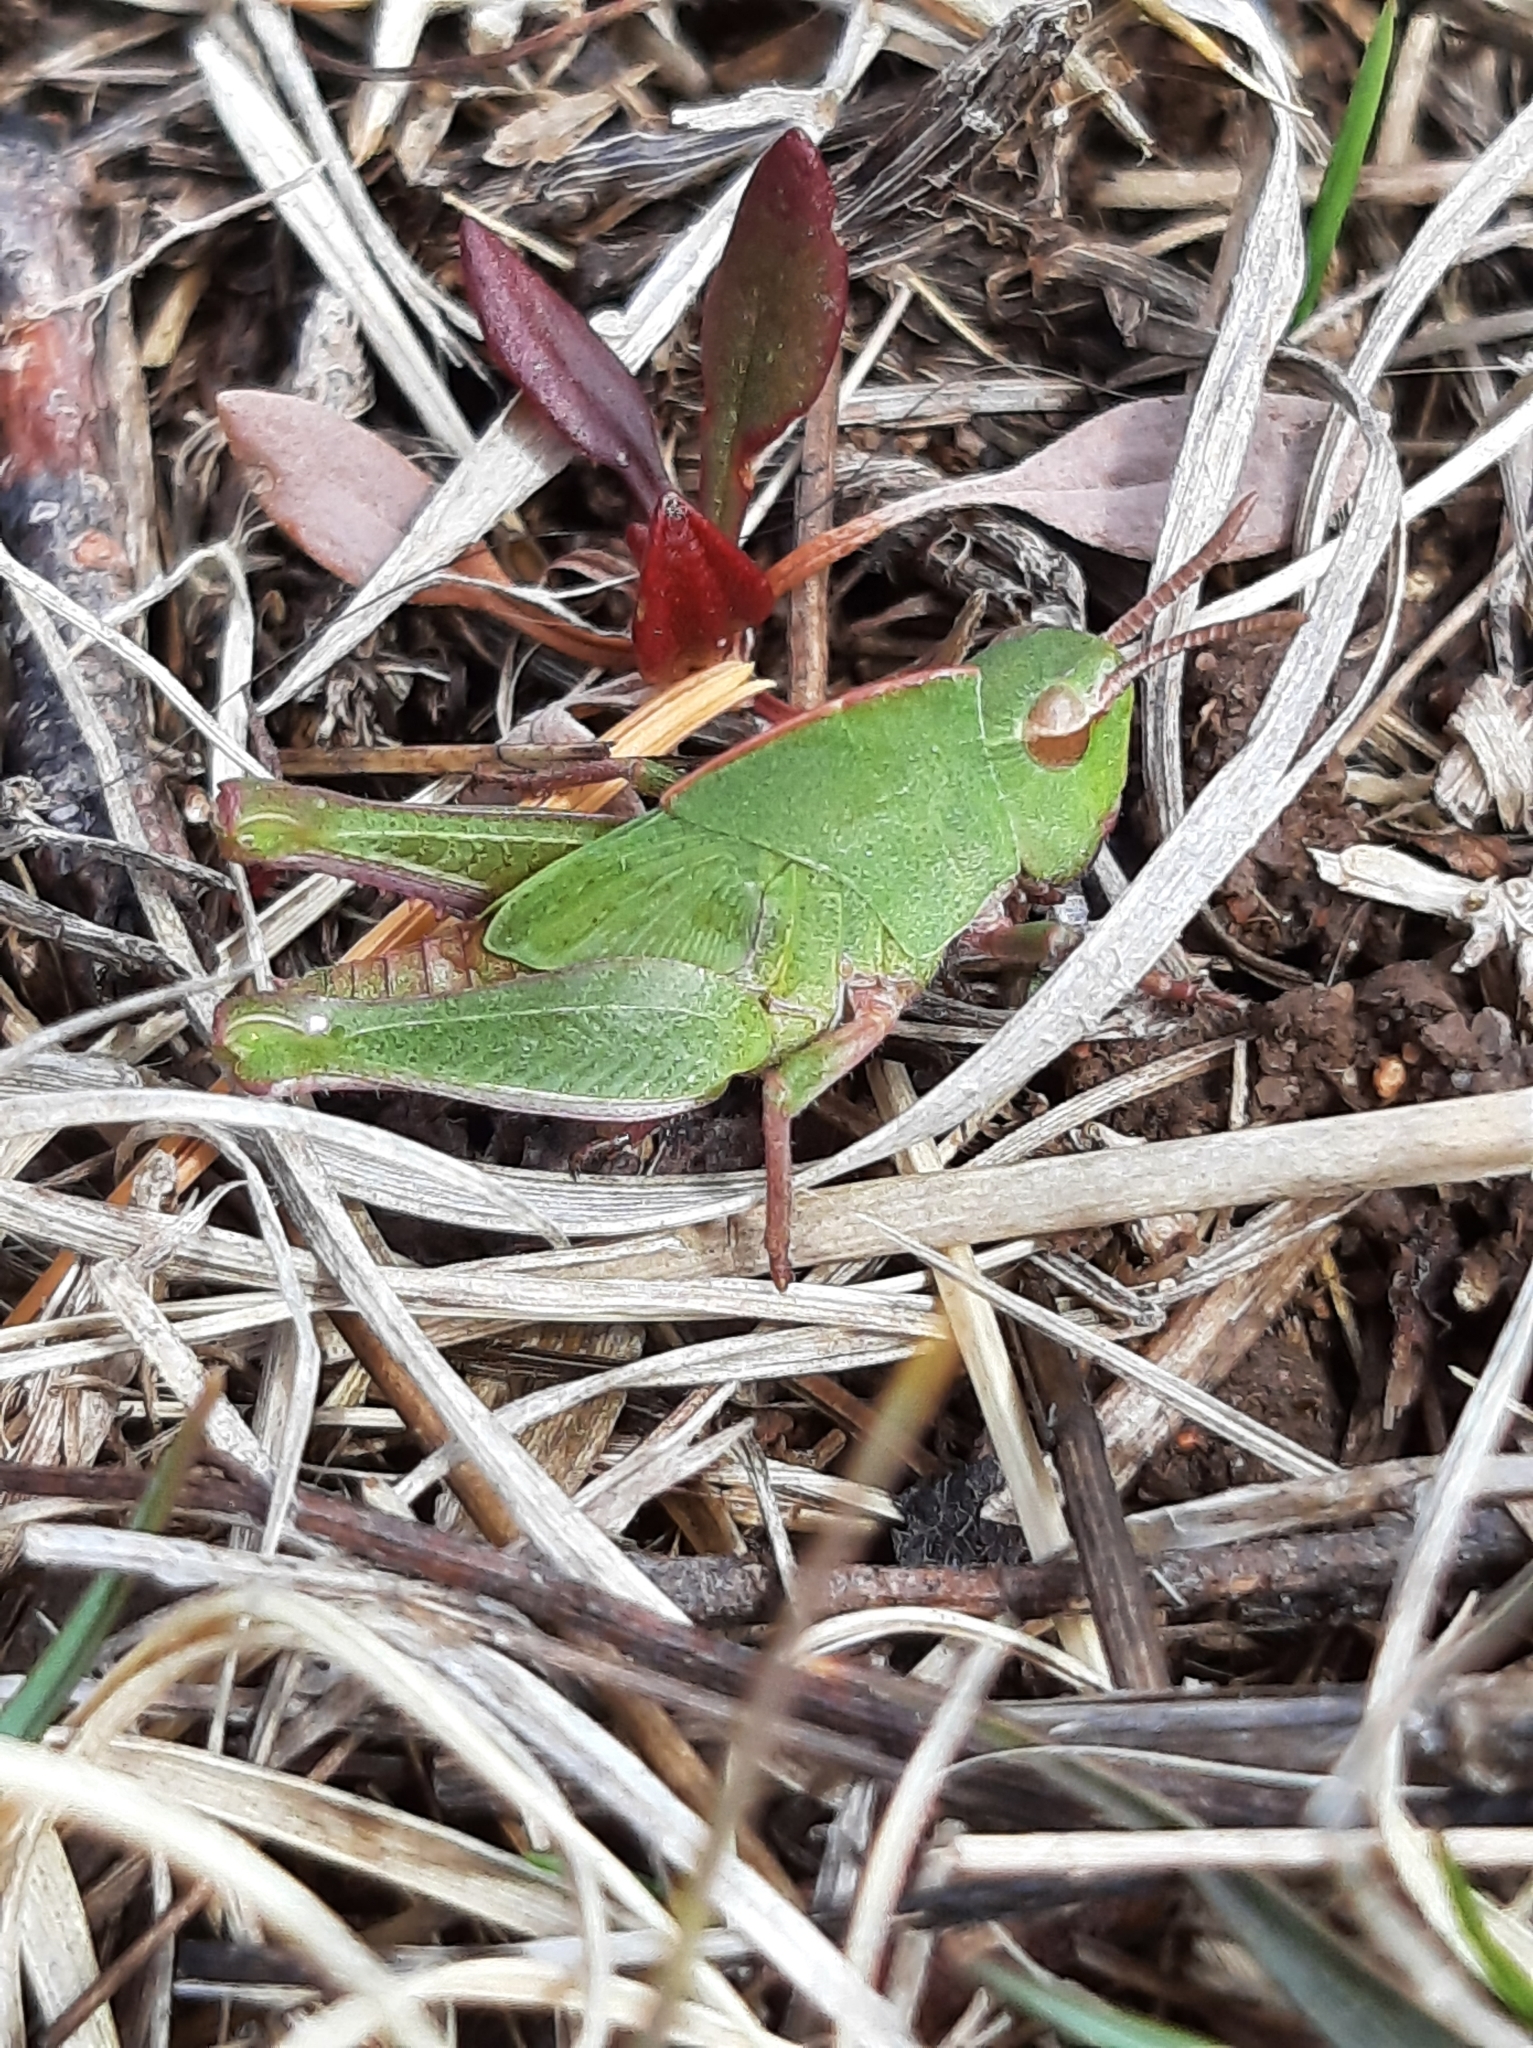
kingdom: Animalia
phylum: Arthropoda
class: Insecta
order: Orthoptera
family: Acrididae
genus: Chortophaga
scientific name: Chortophaga viridifasciata
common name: Green-striped grasshopper
